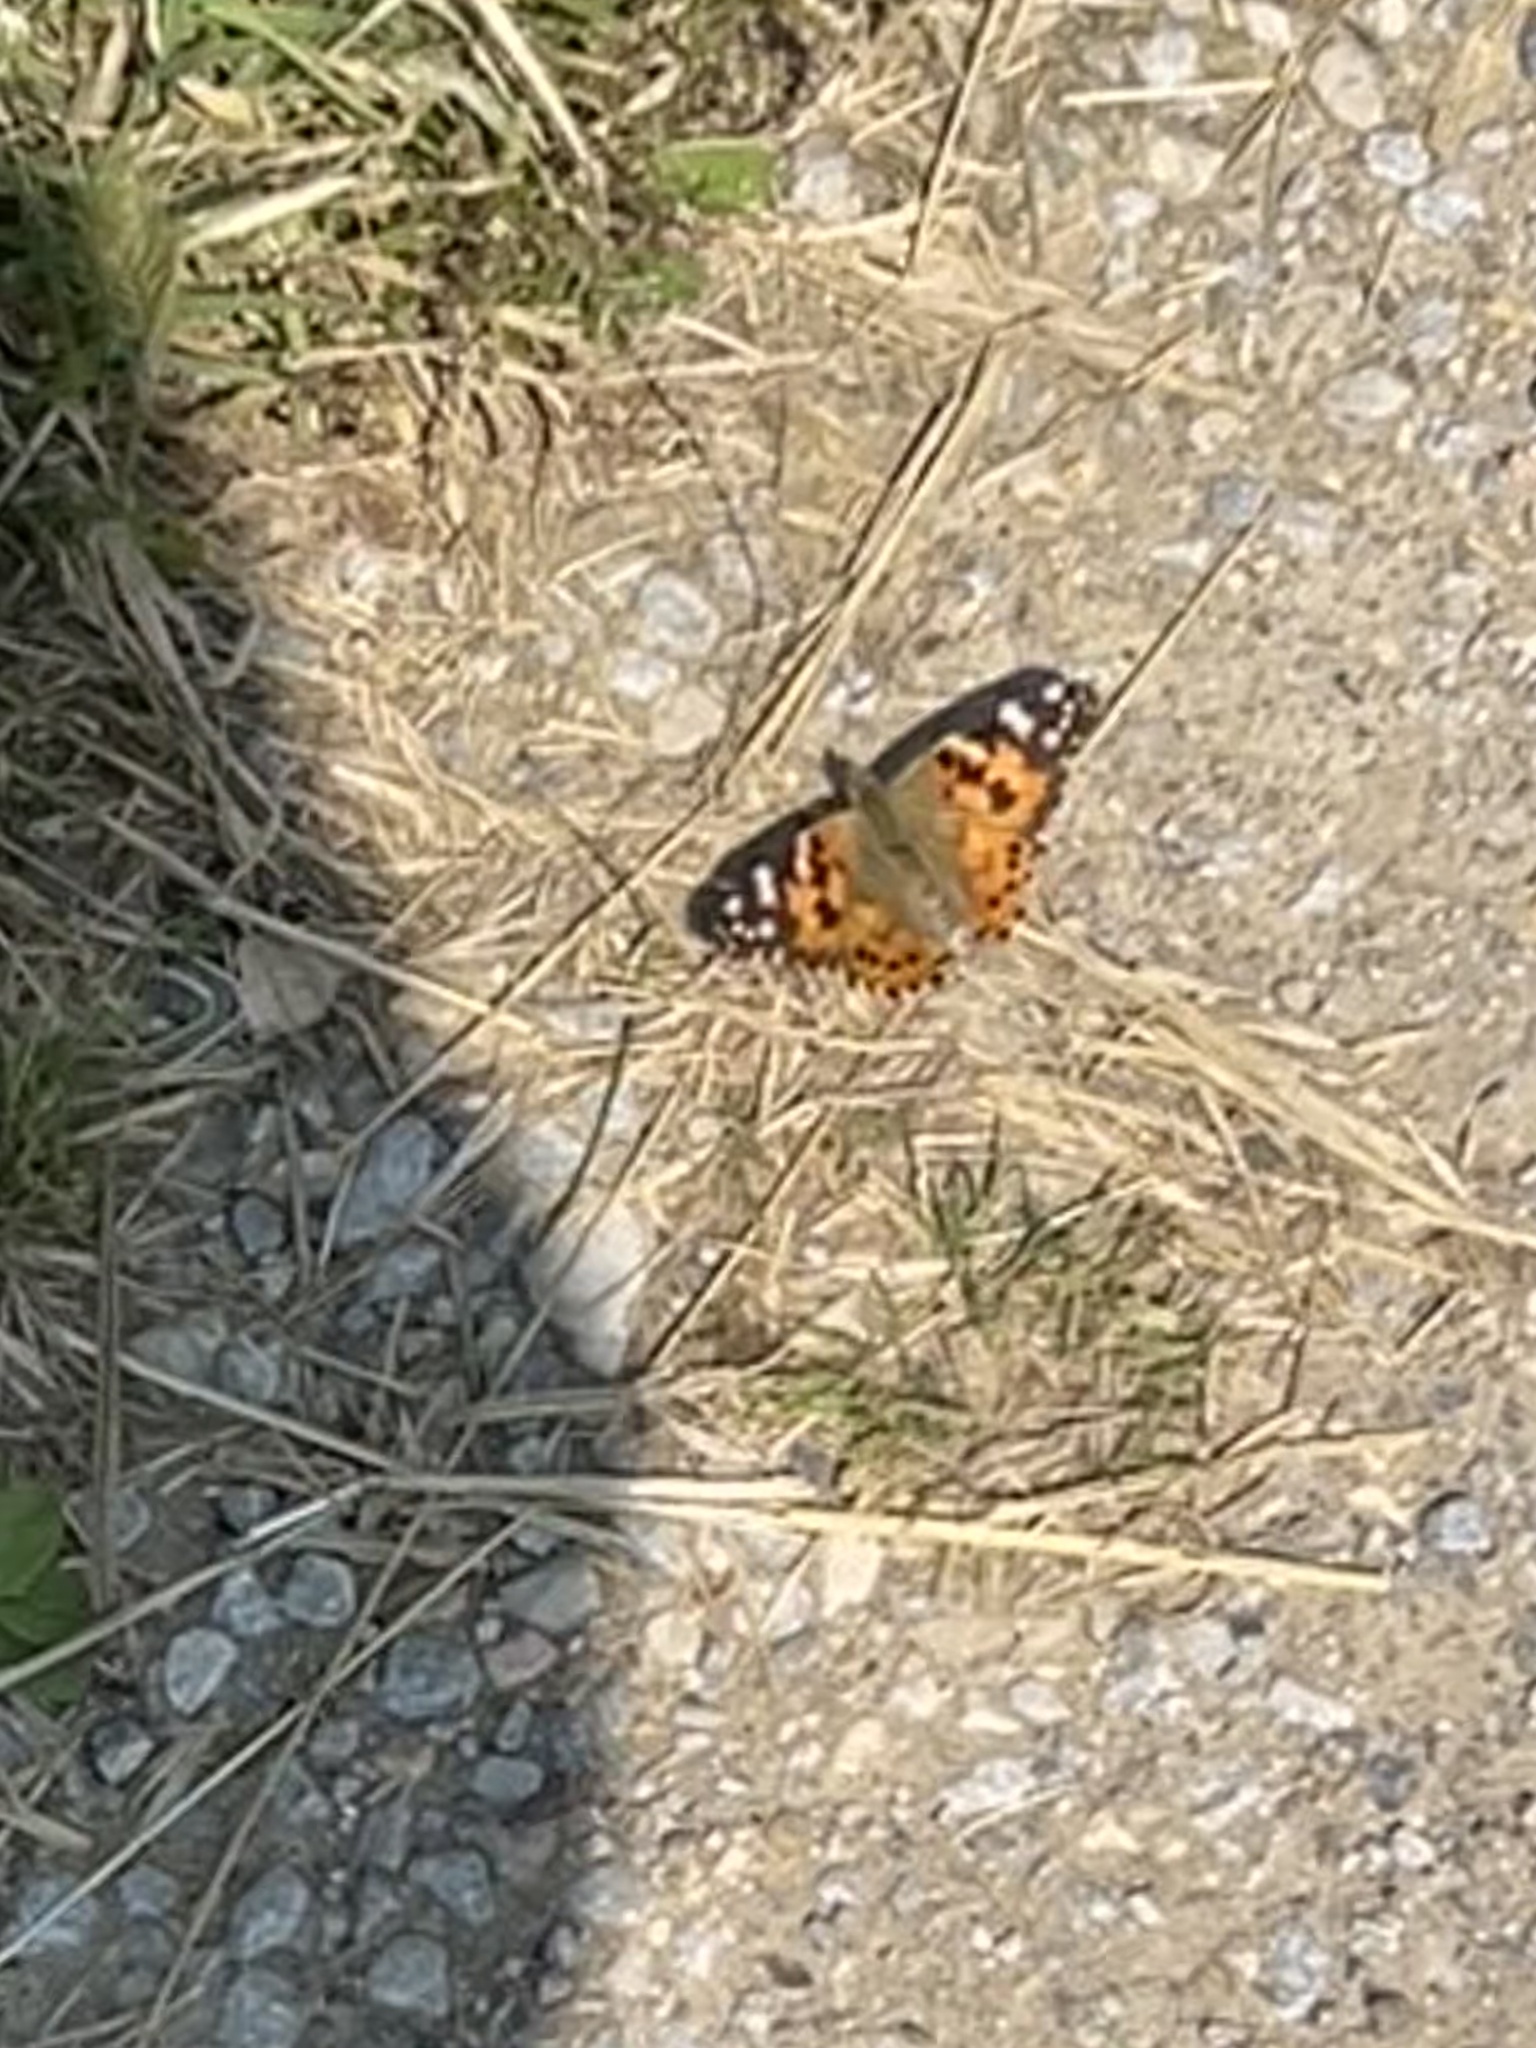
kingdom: Animalia
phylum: Arthropoda
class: Insecta
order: Lepidoptera
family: Nymphalidae
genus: Vanessa
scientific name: Vanessa cardui
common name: Painted lady
